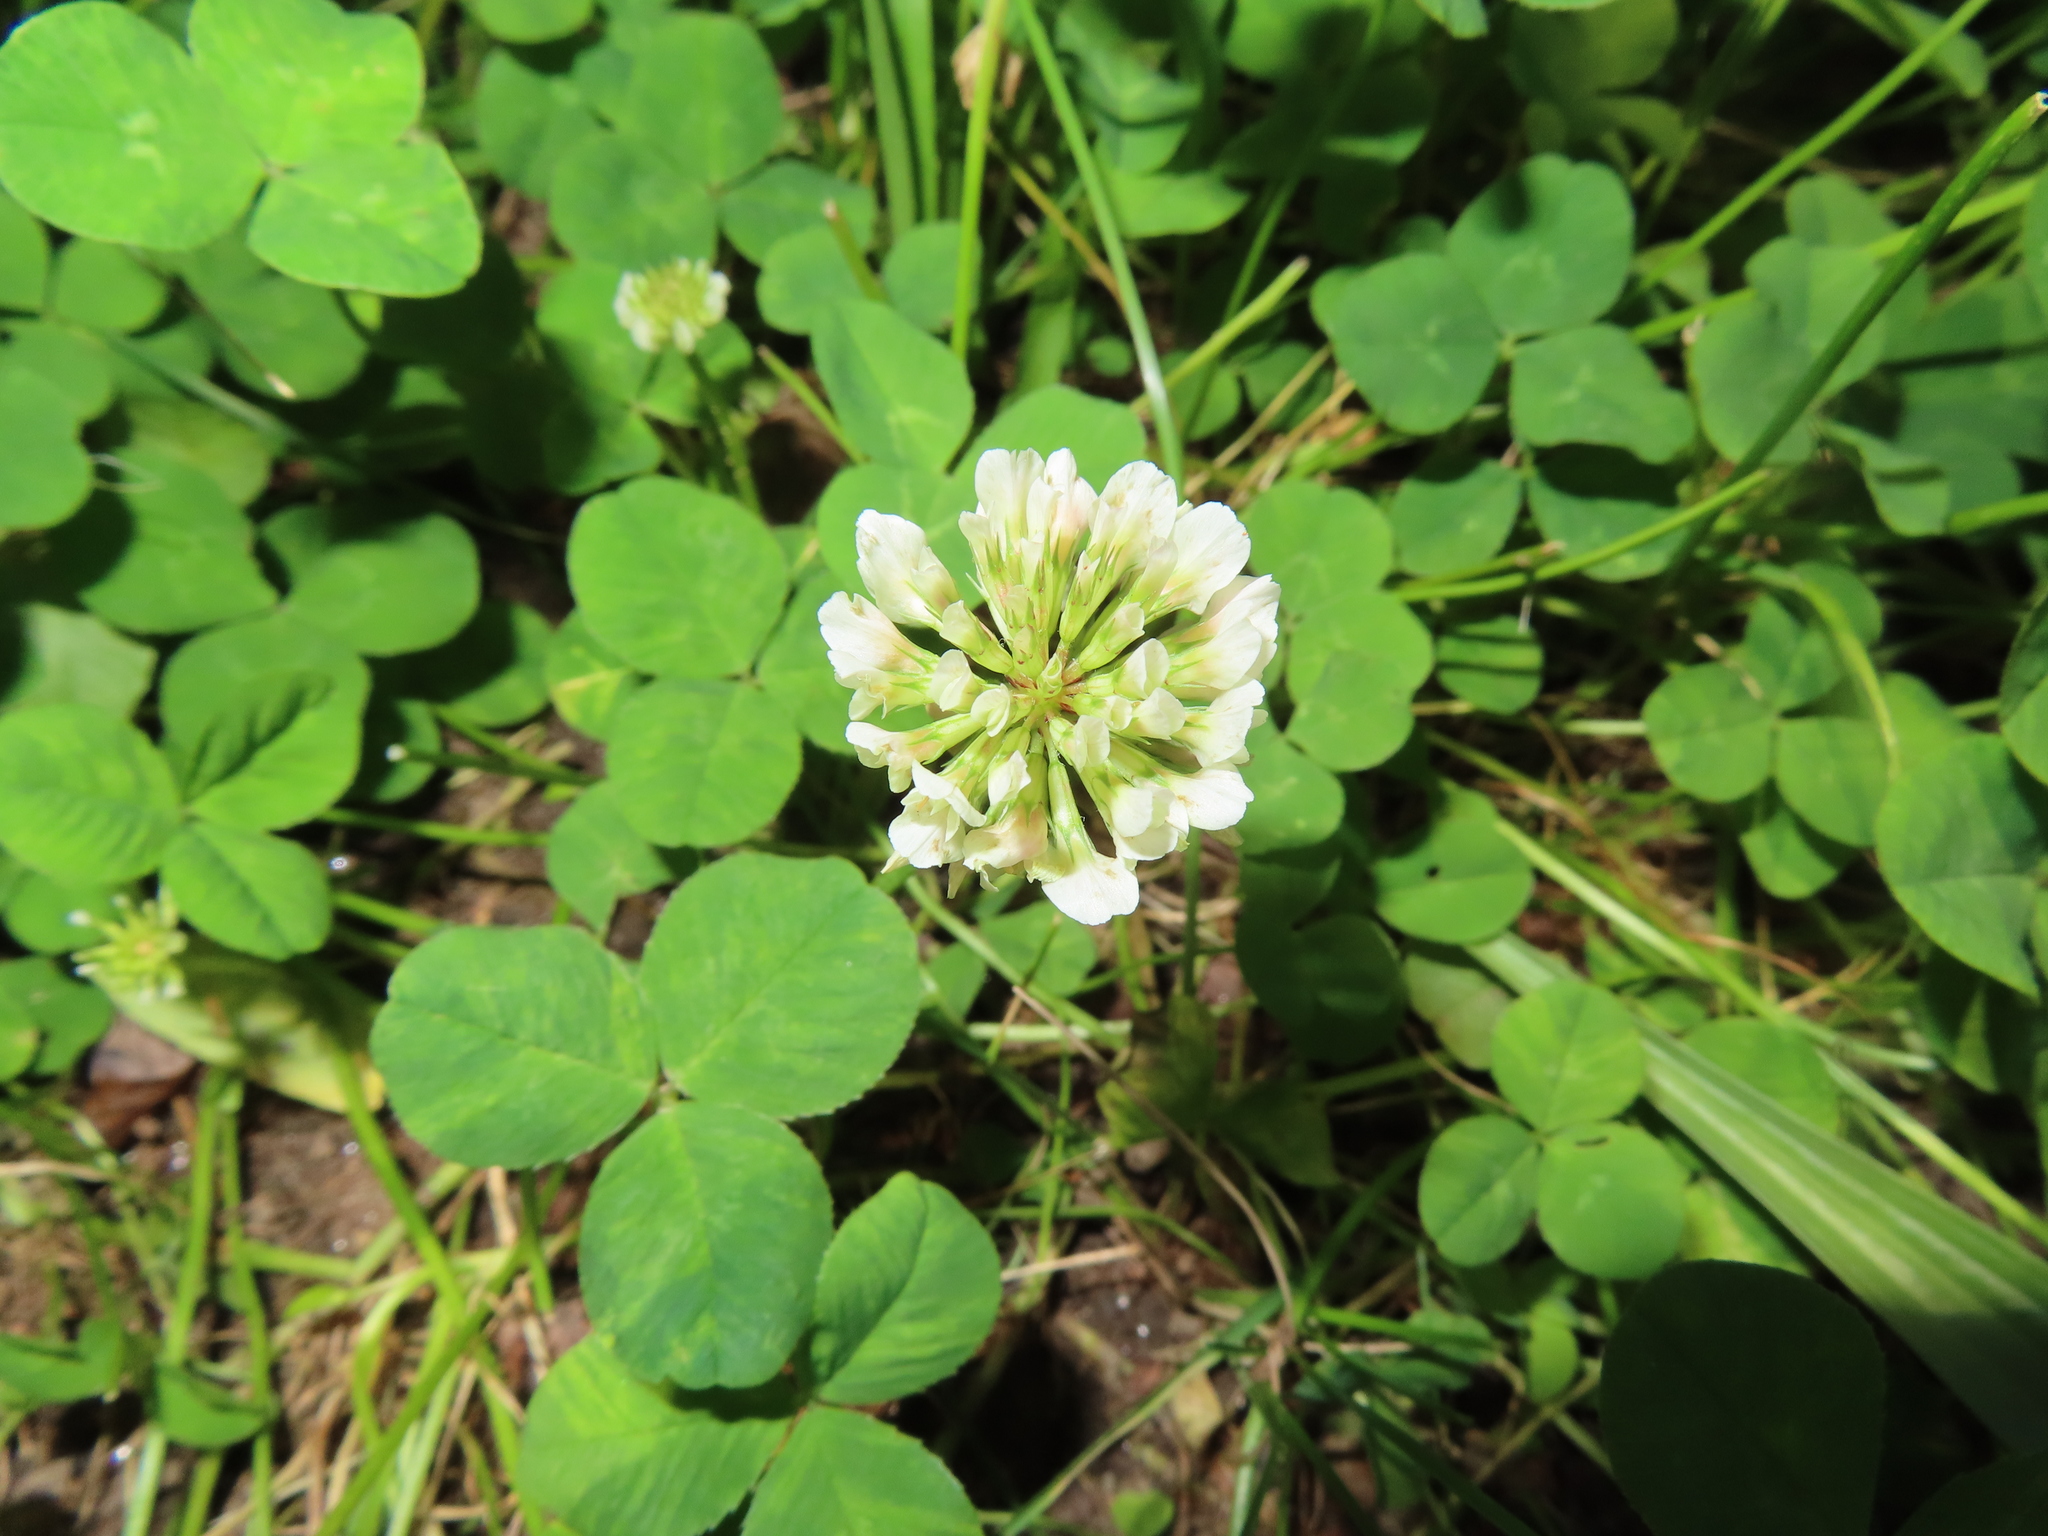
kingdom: Plantae
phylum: Tracheophyta
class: Magnoliopsida
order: Fabales
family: Fabaceae
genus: Trifolium
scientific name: Trifolium repens
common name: White clover
